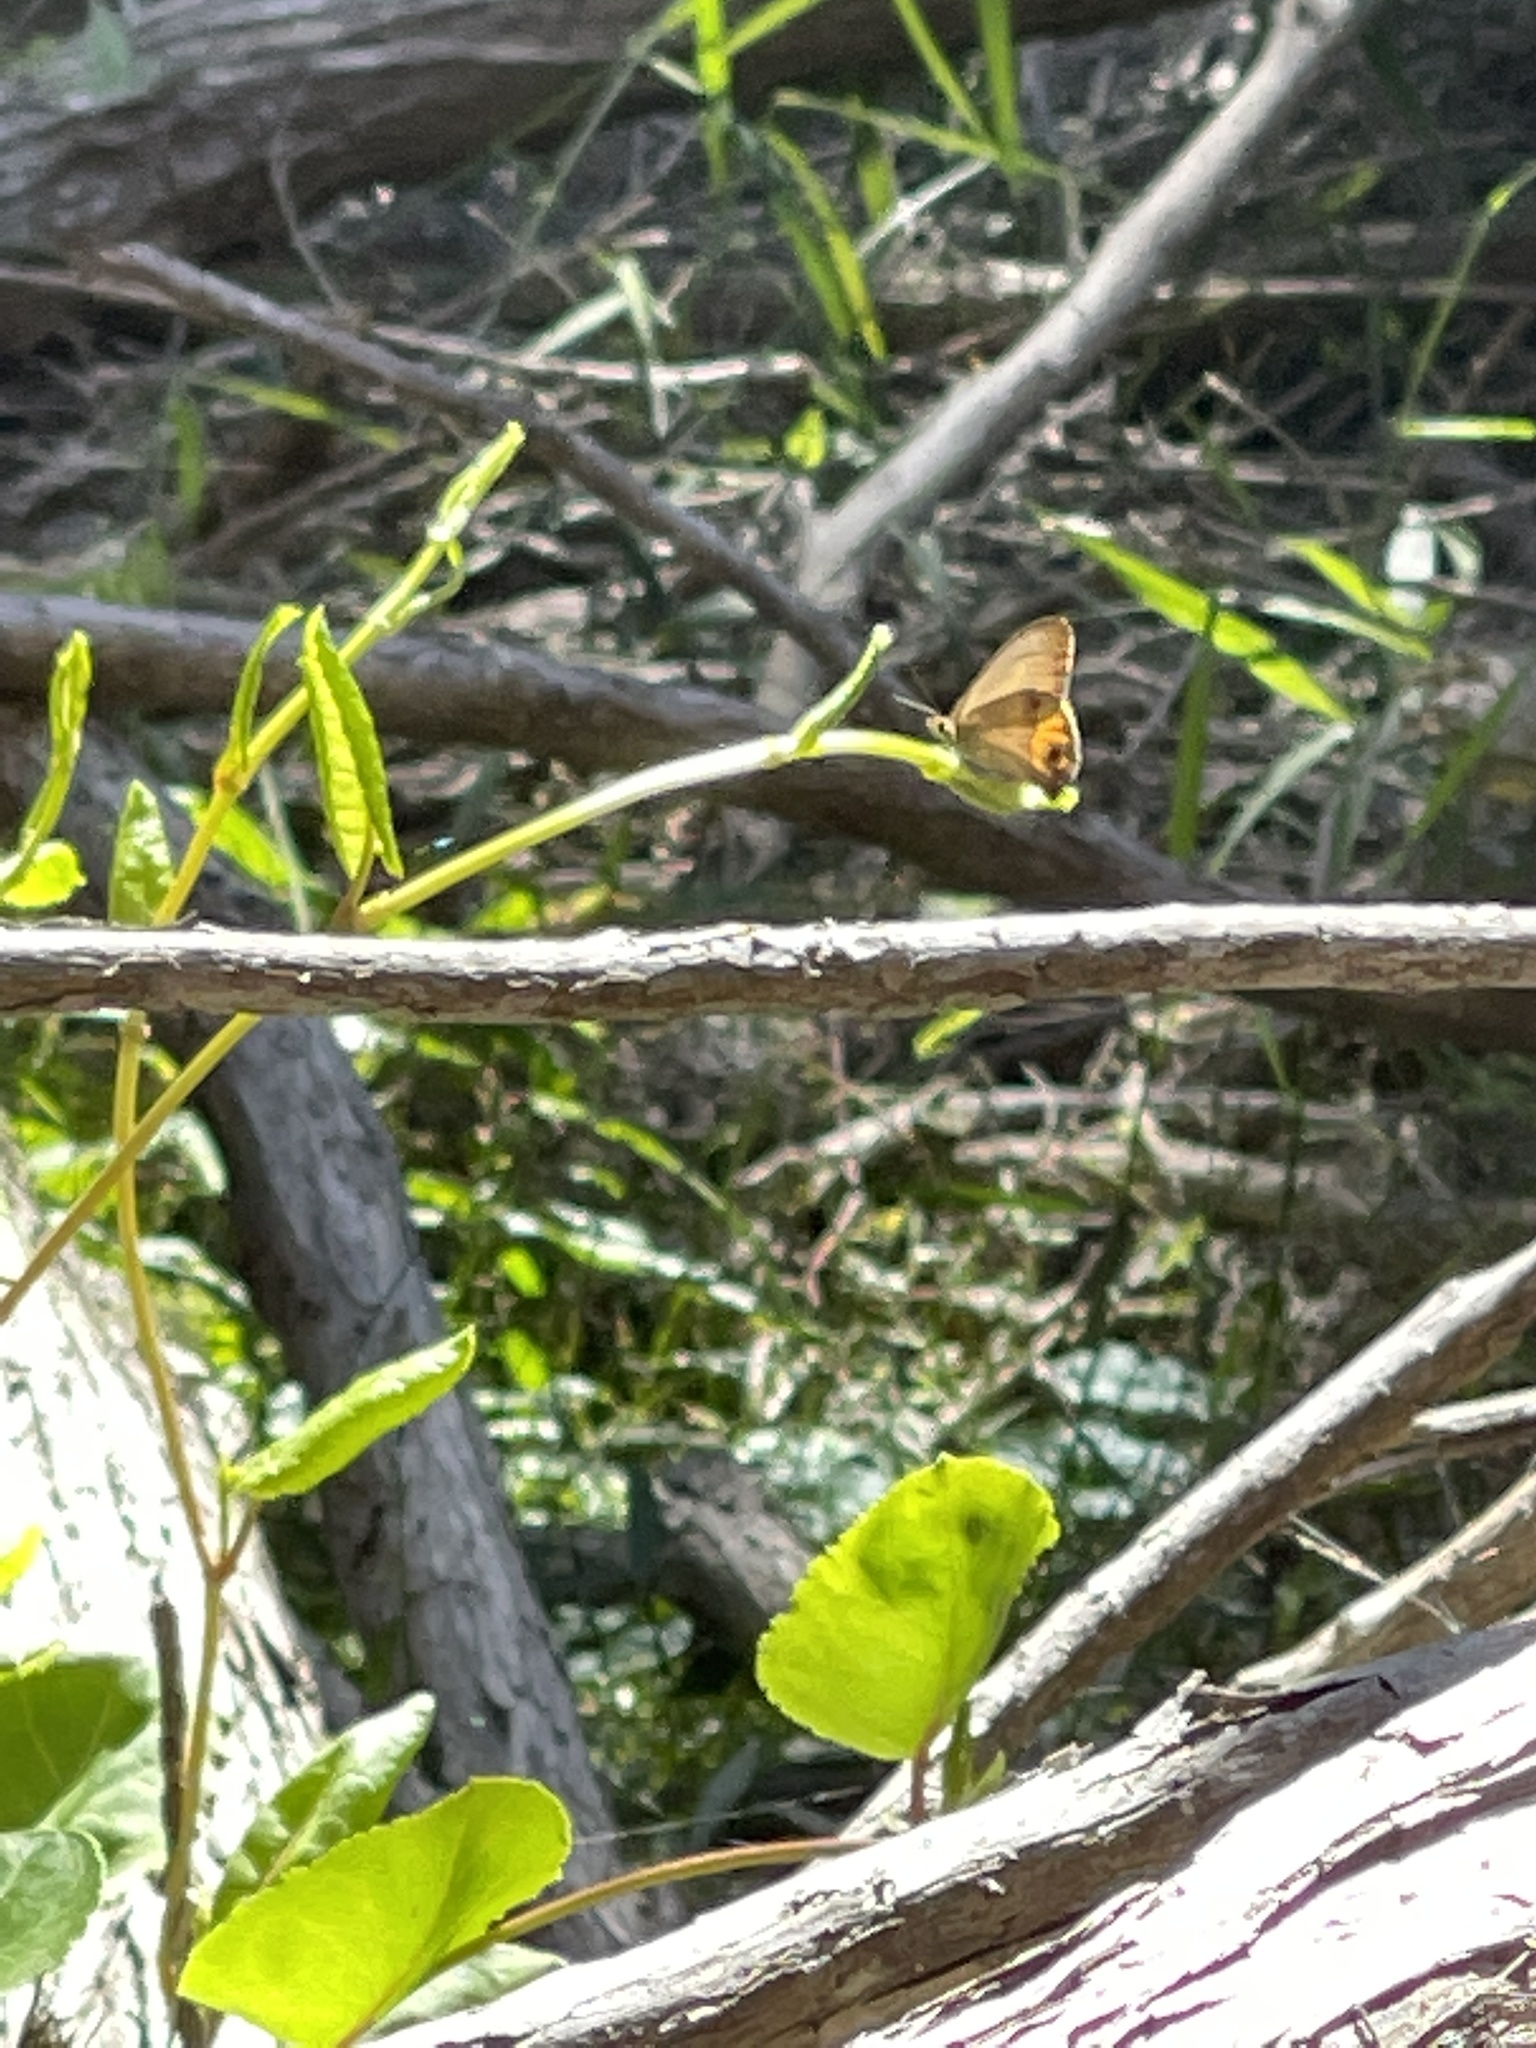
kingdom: Animalia
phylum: Arthropoda
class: Insecta
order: Lepidoptera
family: Nymphalidae
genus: Hypocysta
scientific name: Hypocysta metirius
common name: Brown ringlet
